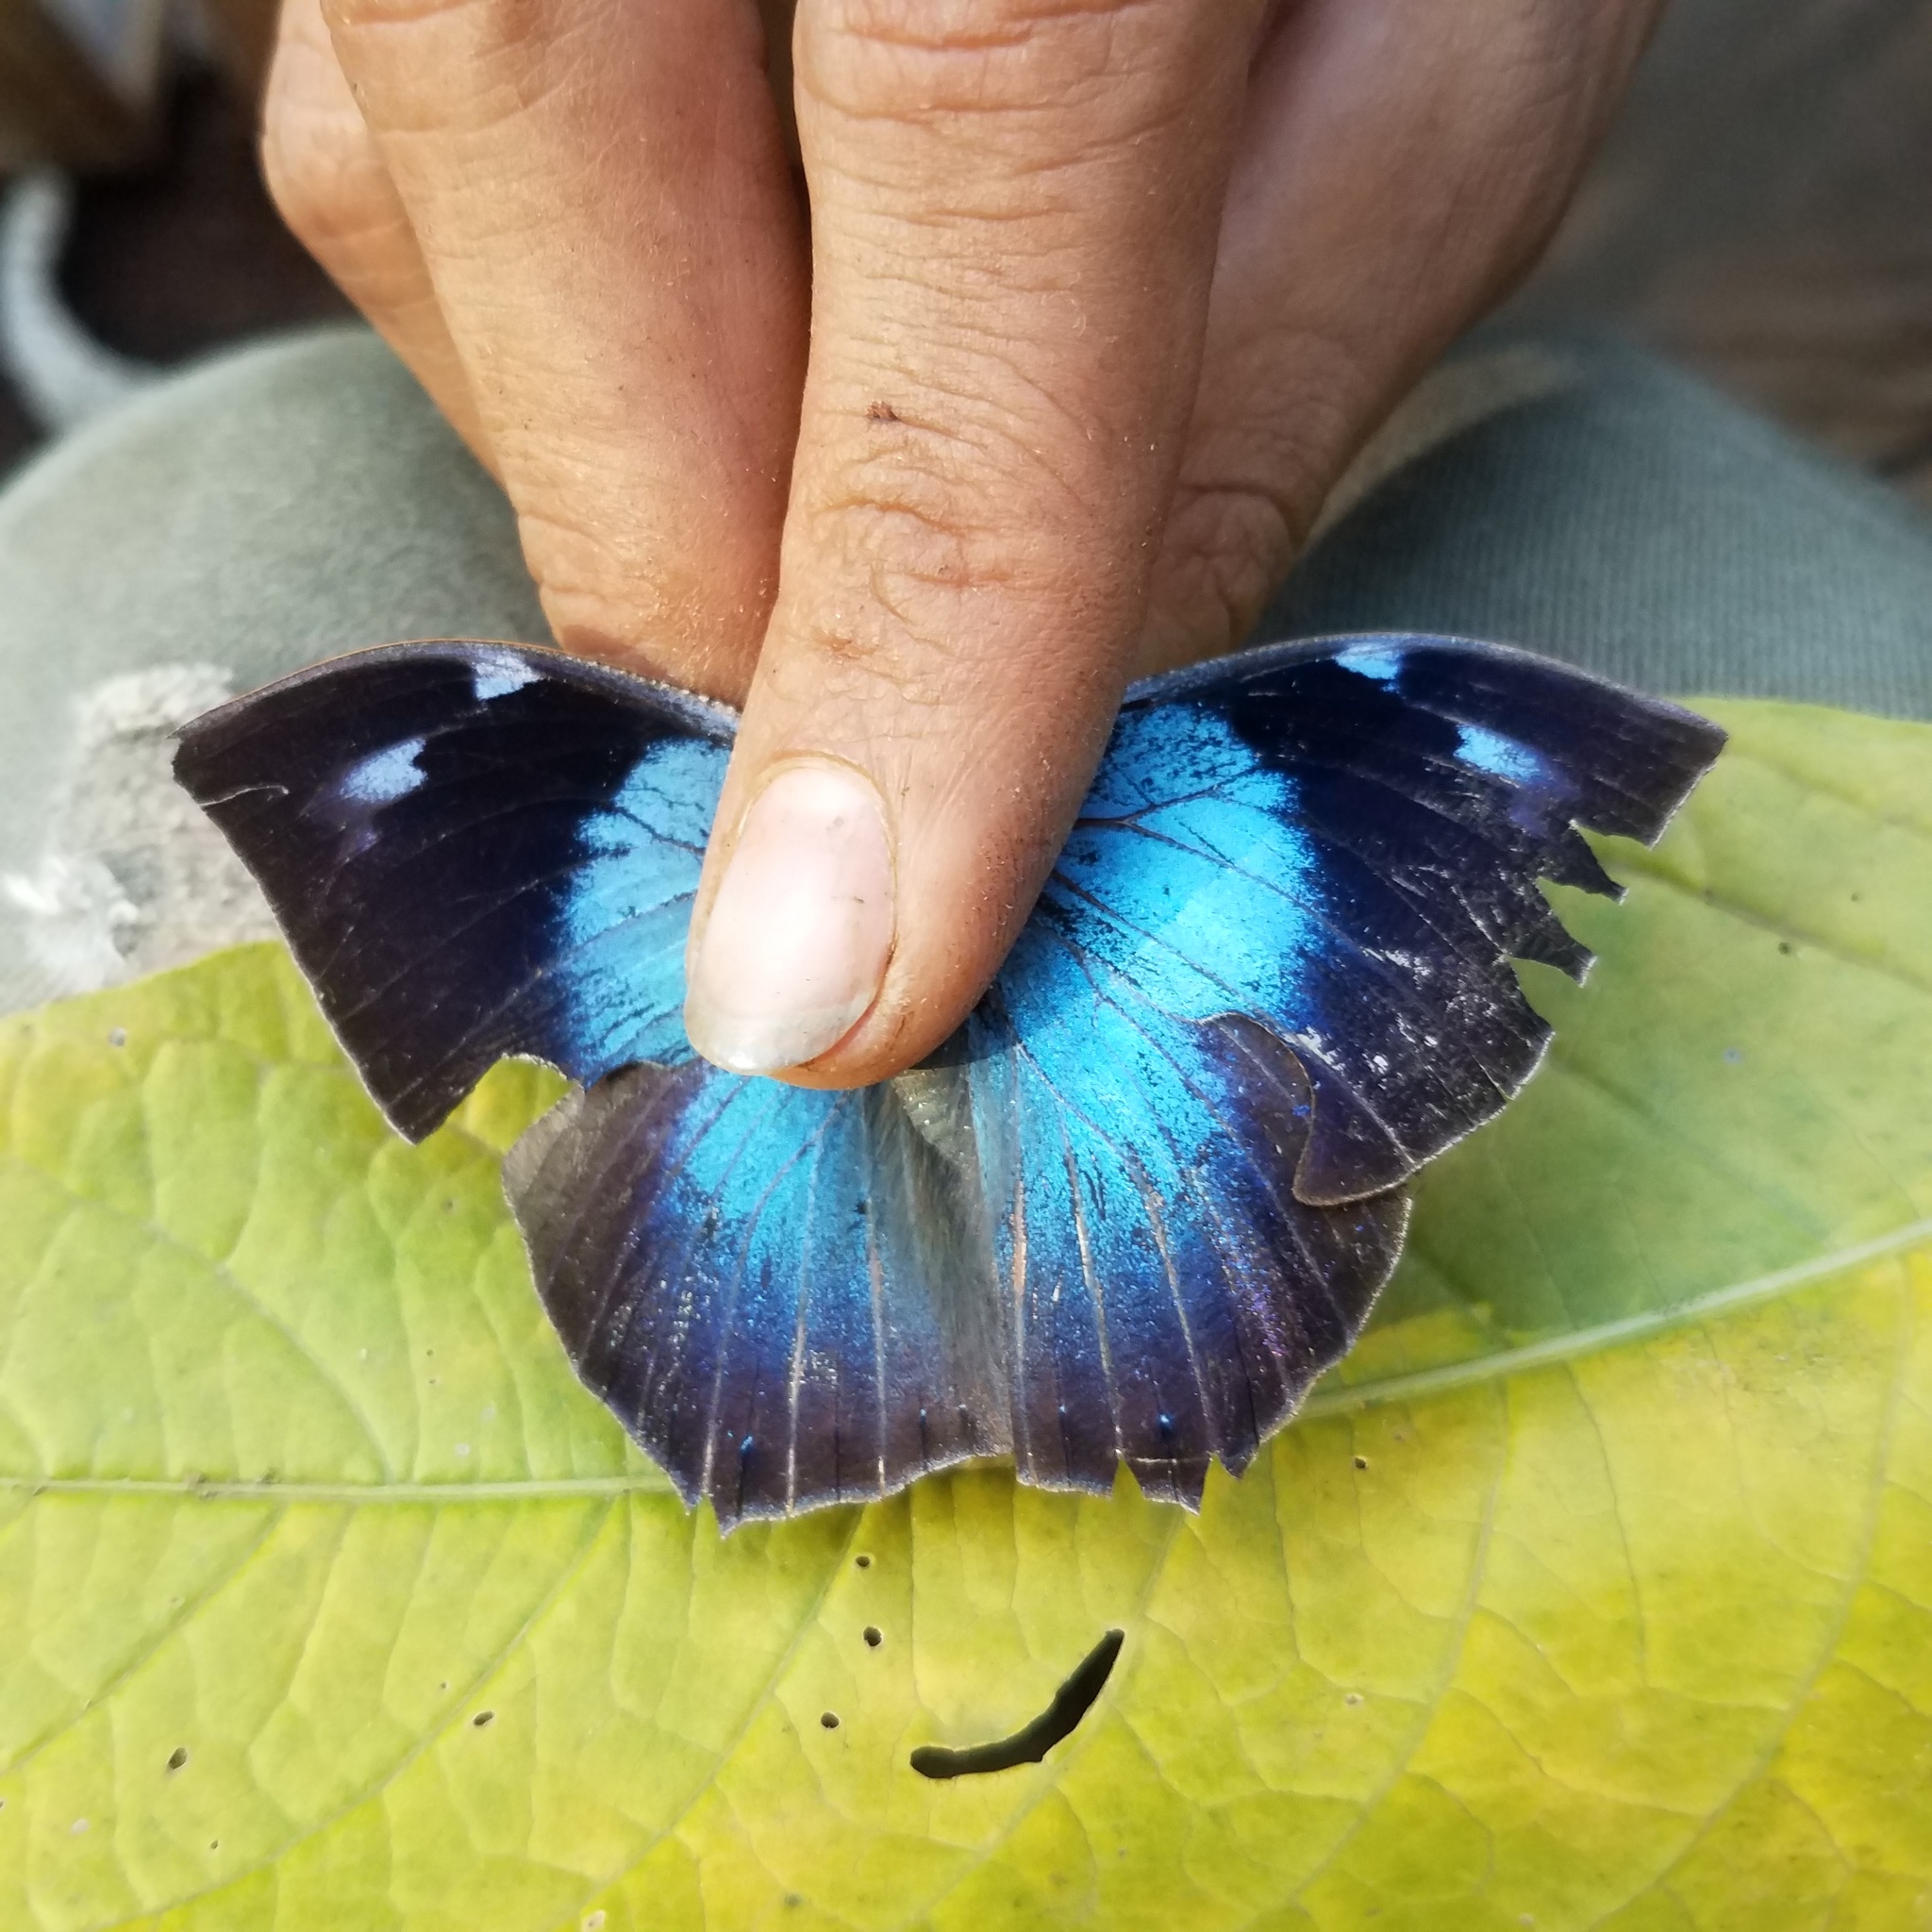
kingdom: Animalia
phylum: Arthropoda
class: Insecta
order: Lepidoptera
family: Nymphalidae
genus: Memphis
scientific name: Memphis moruus
